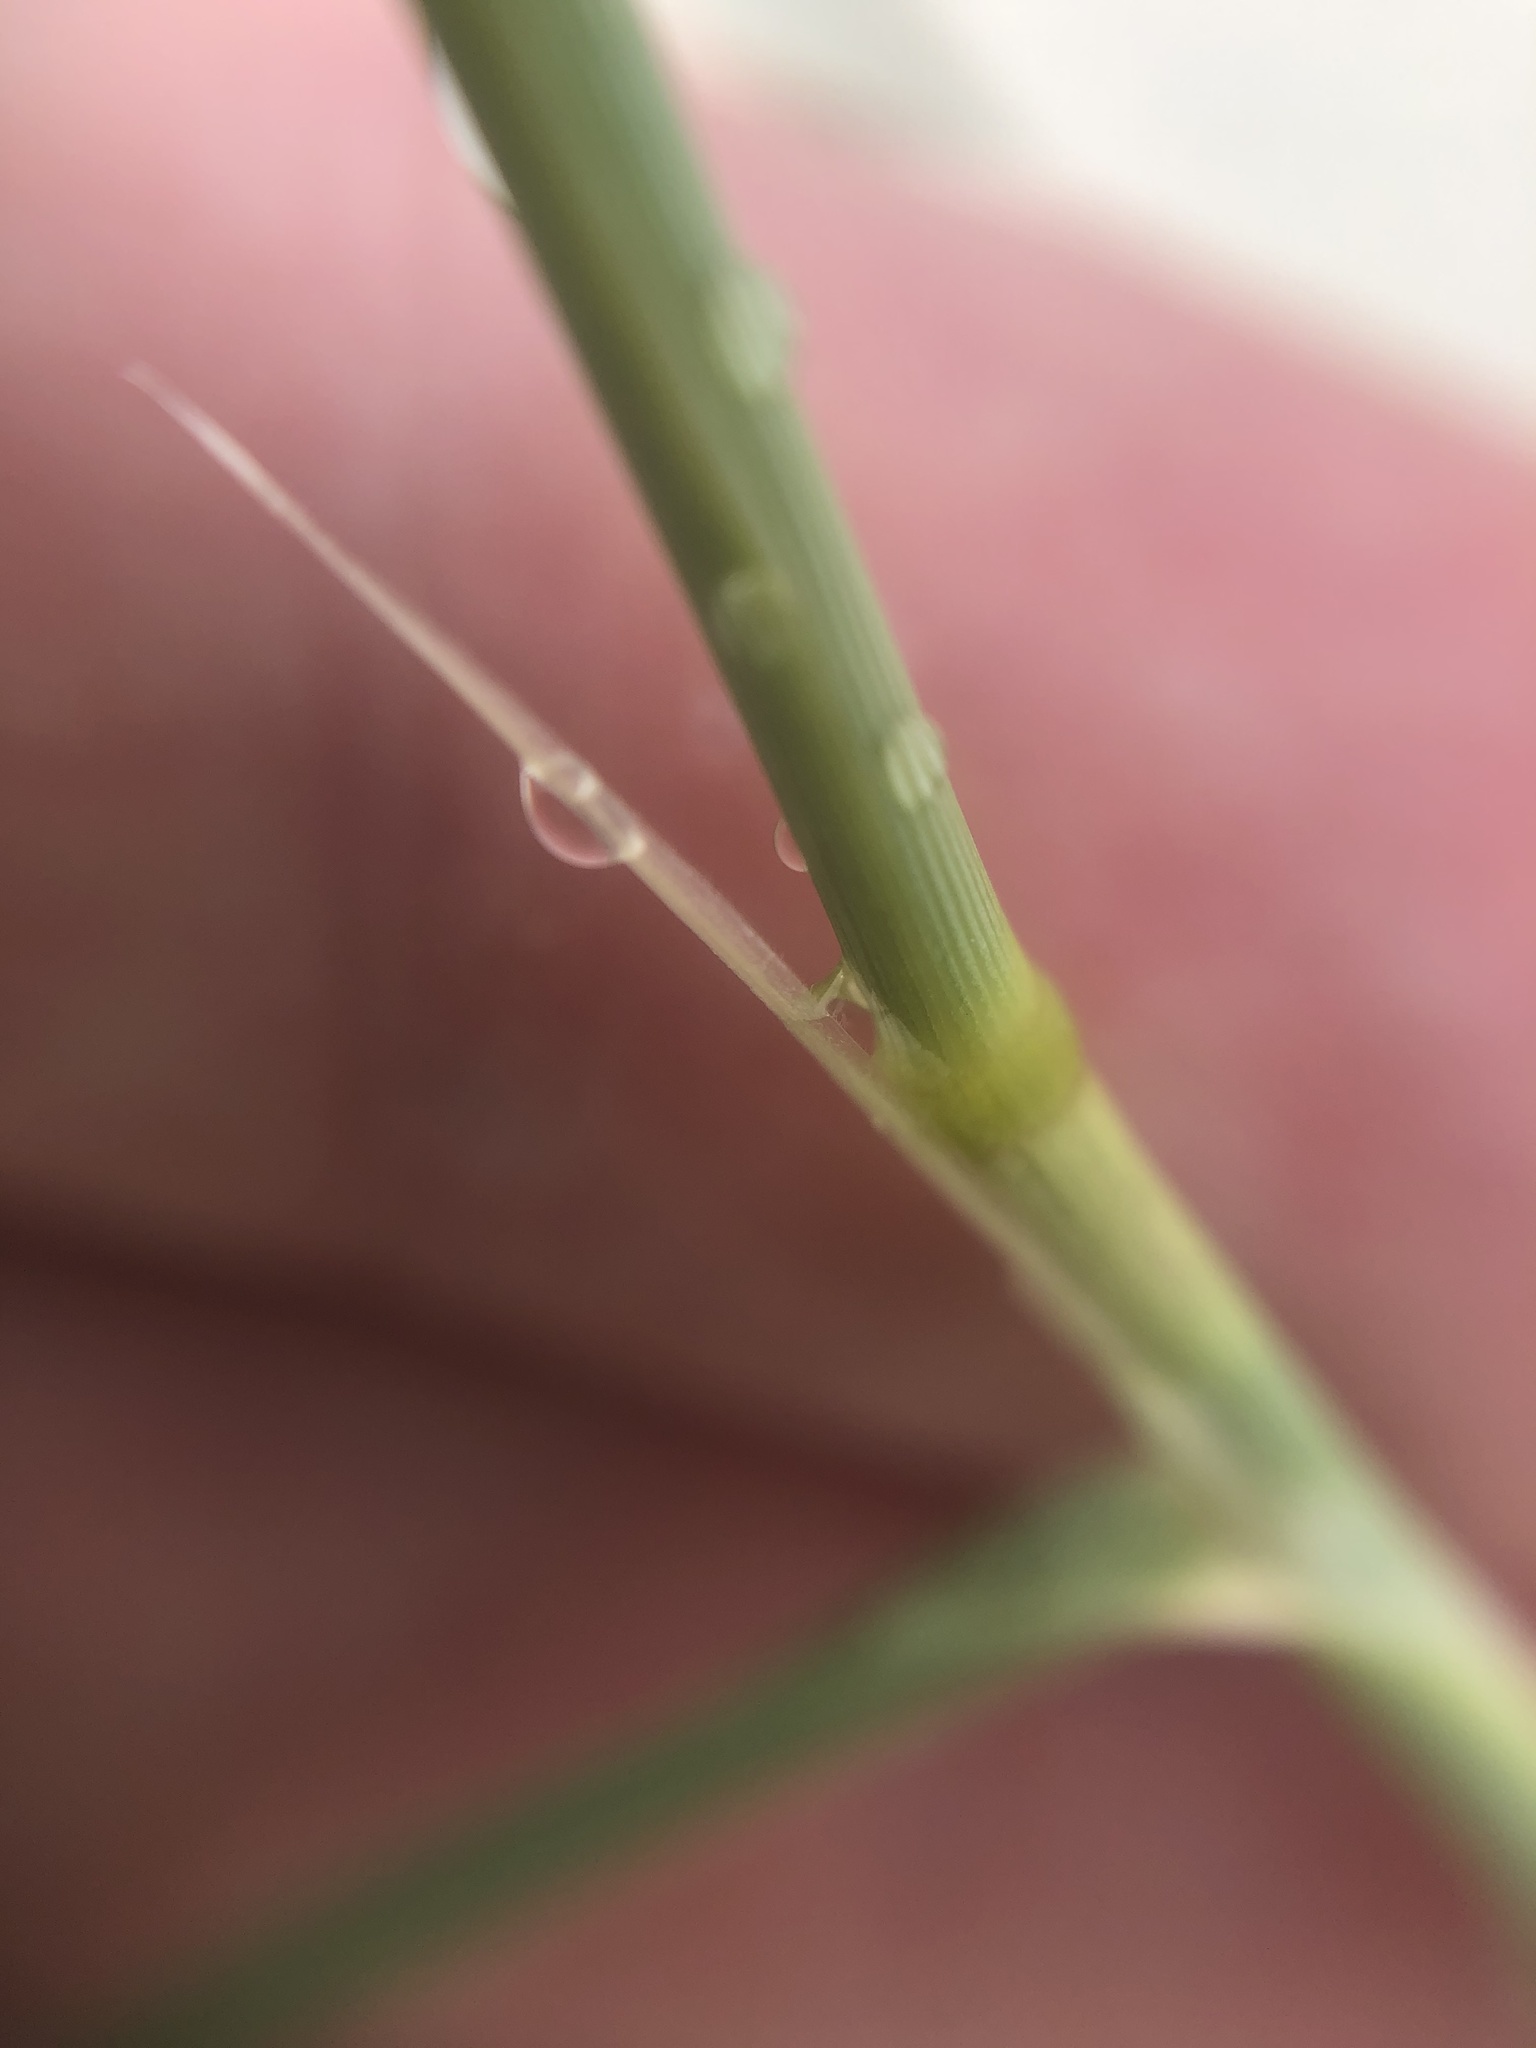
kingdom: Plantae
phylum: Tracheophyta
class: Liliopsida
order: Poales
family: Poaceae
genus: Eriocoma
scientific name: Eriocoma hymenoides
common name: Indian mountain ricegrass
